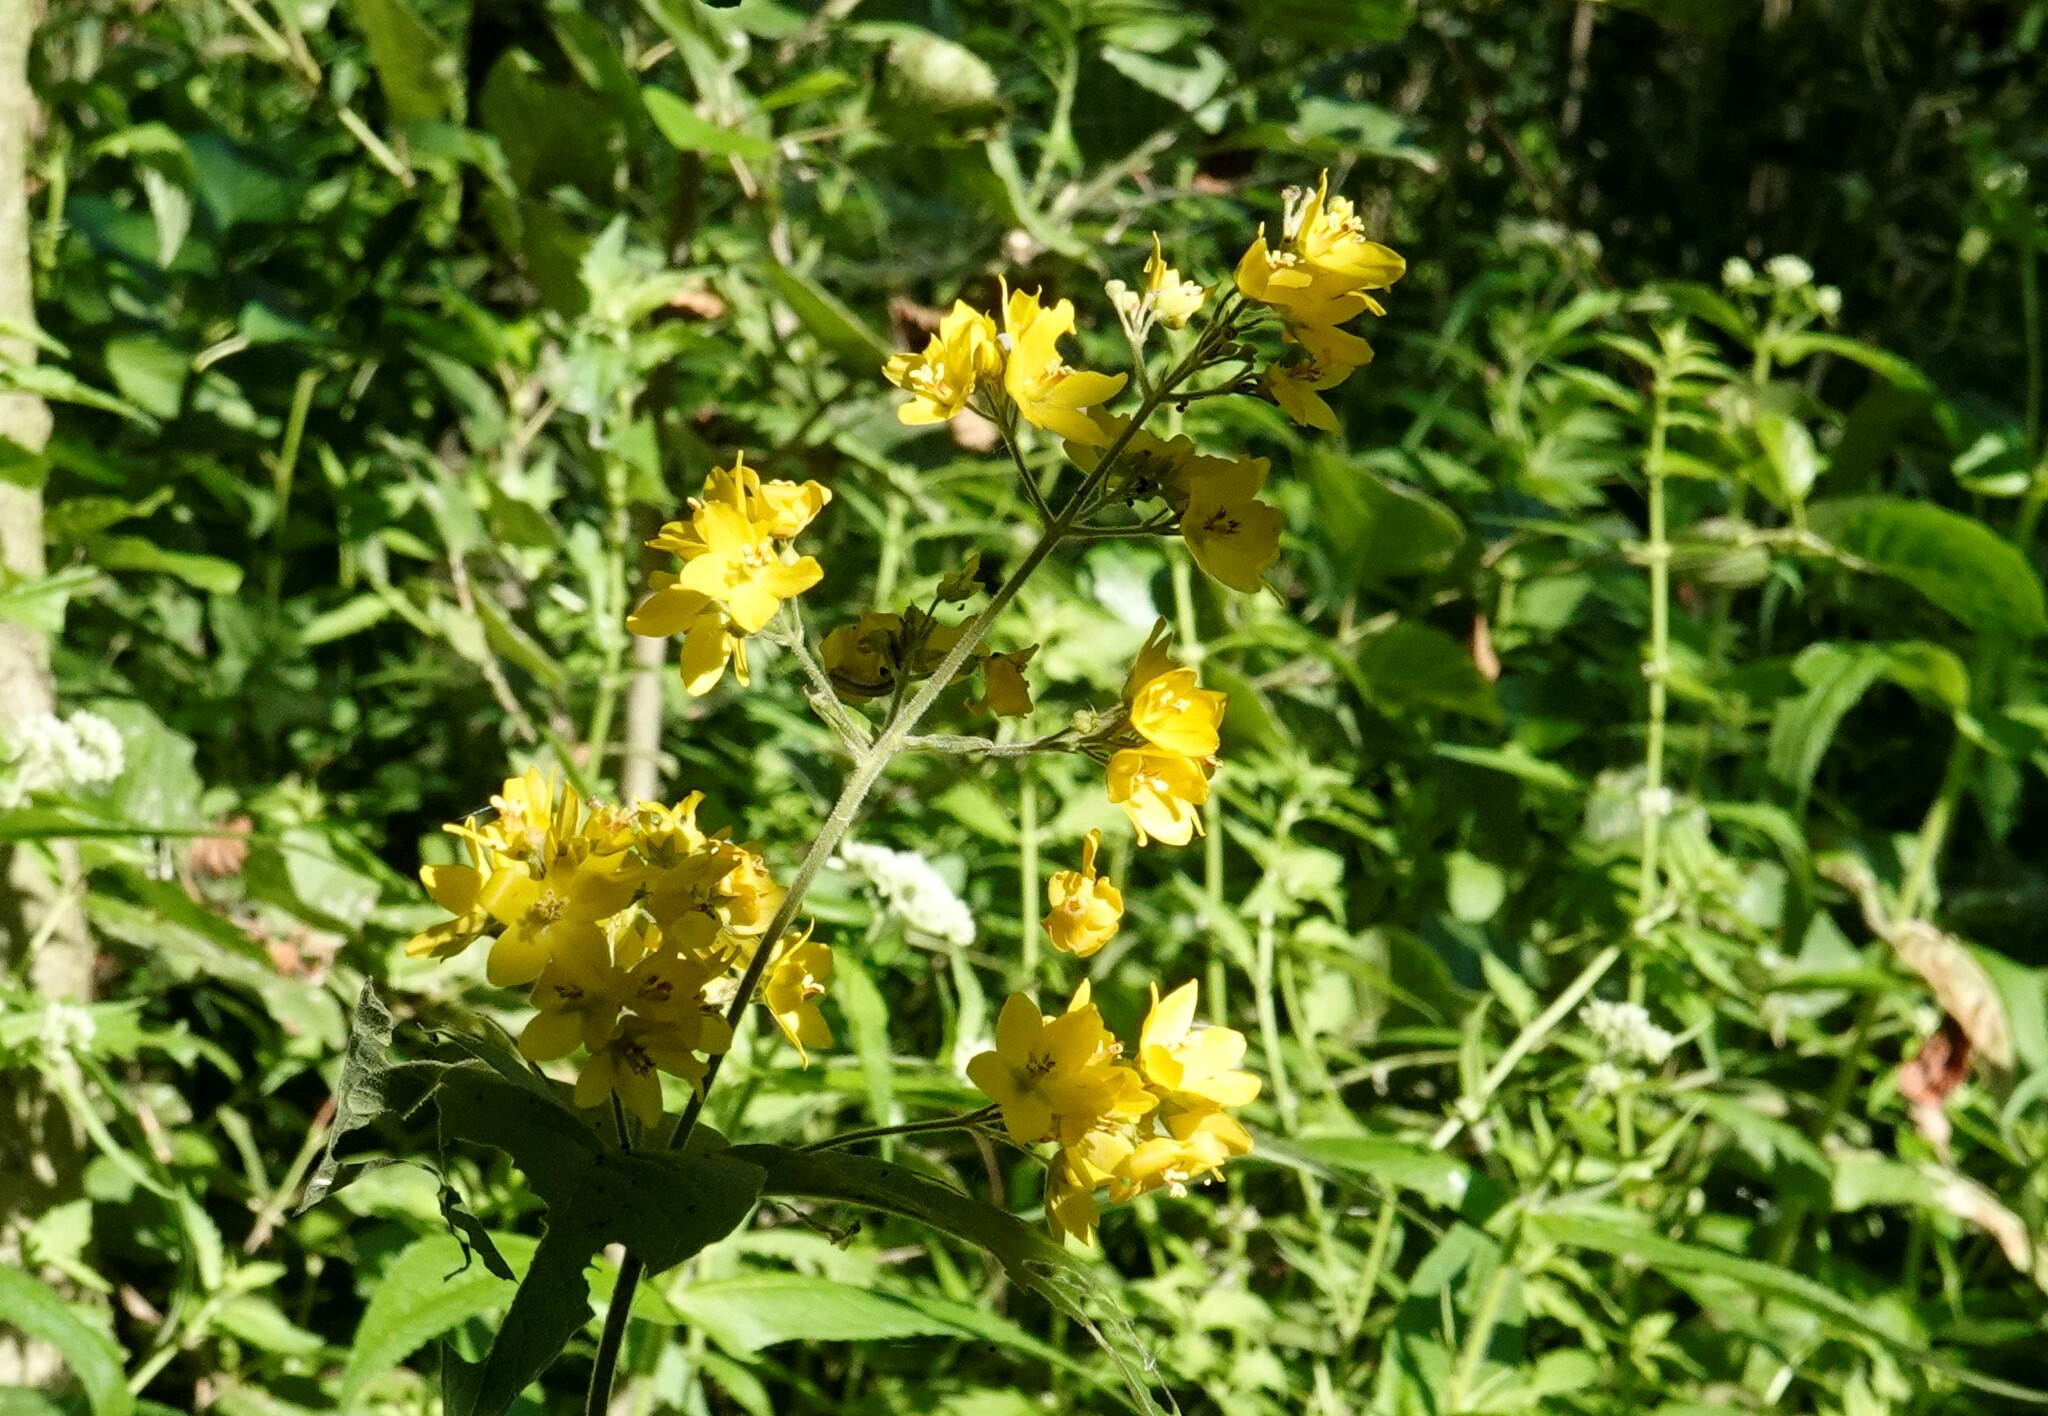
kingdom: Plantae
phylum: Tracheophyta
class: Magnoliopsida
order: Ericales
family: Primulaceae
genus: Lysimachia
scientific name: Lysimachia vulgaris
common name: Yellow loosestrife
